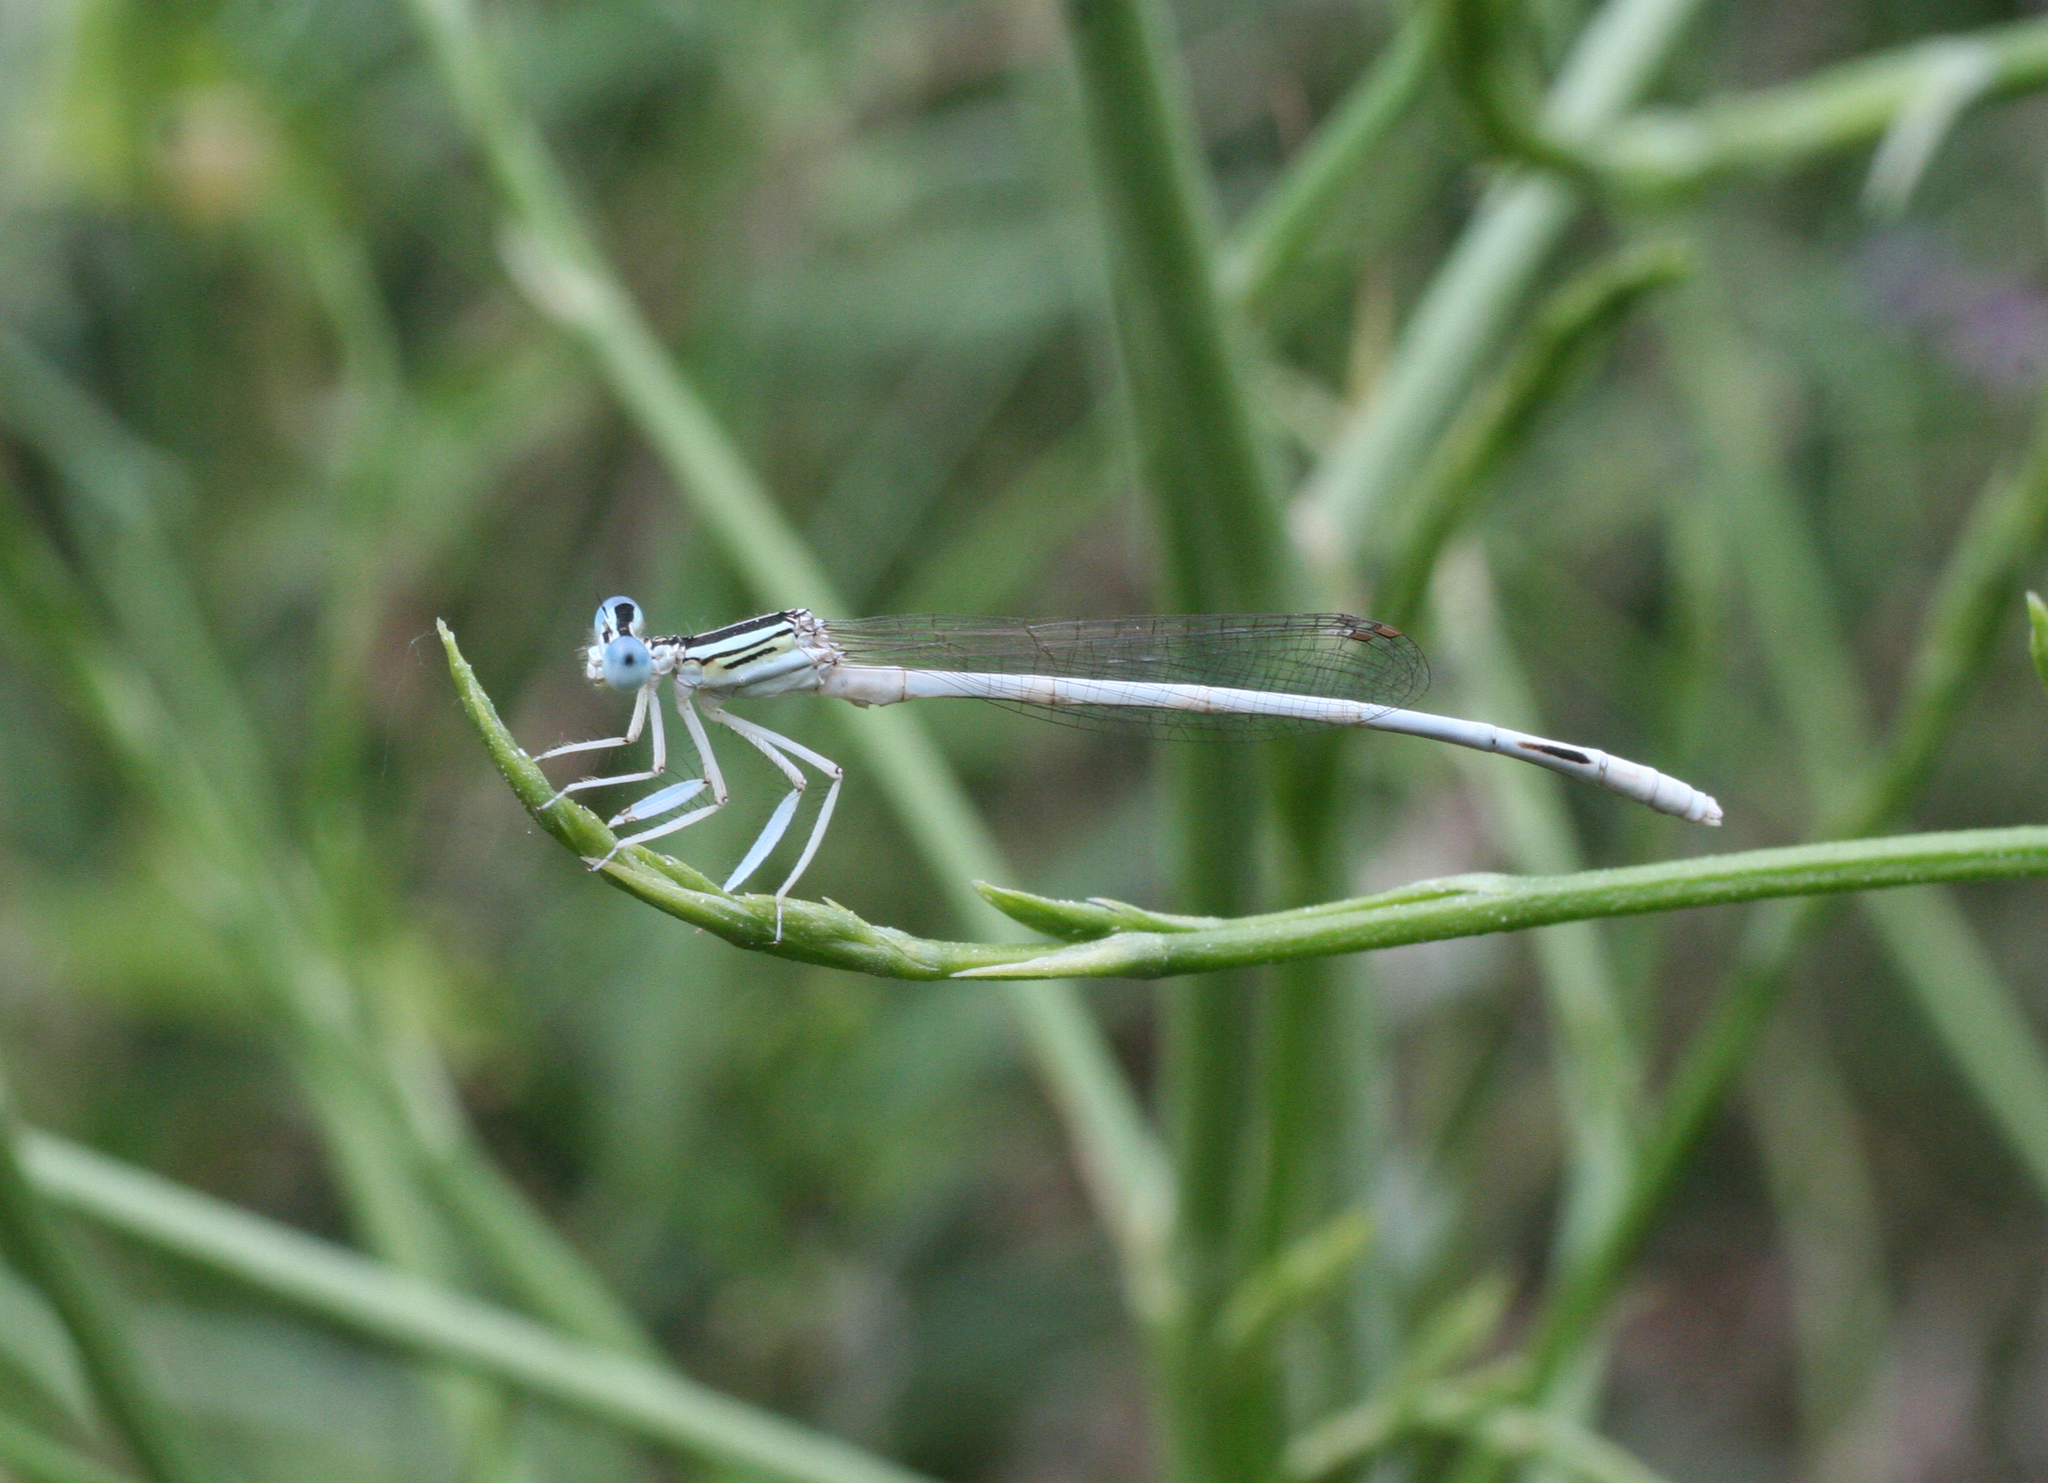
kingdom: Animalia
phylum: Arthropoda
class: Insecta
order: Odonata
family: Platycnemididae
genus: Platycnemis
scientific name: Platycnemis dealbata
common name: Ivory featherleg
